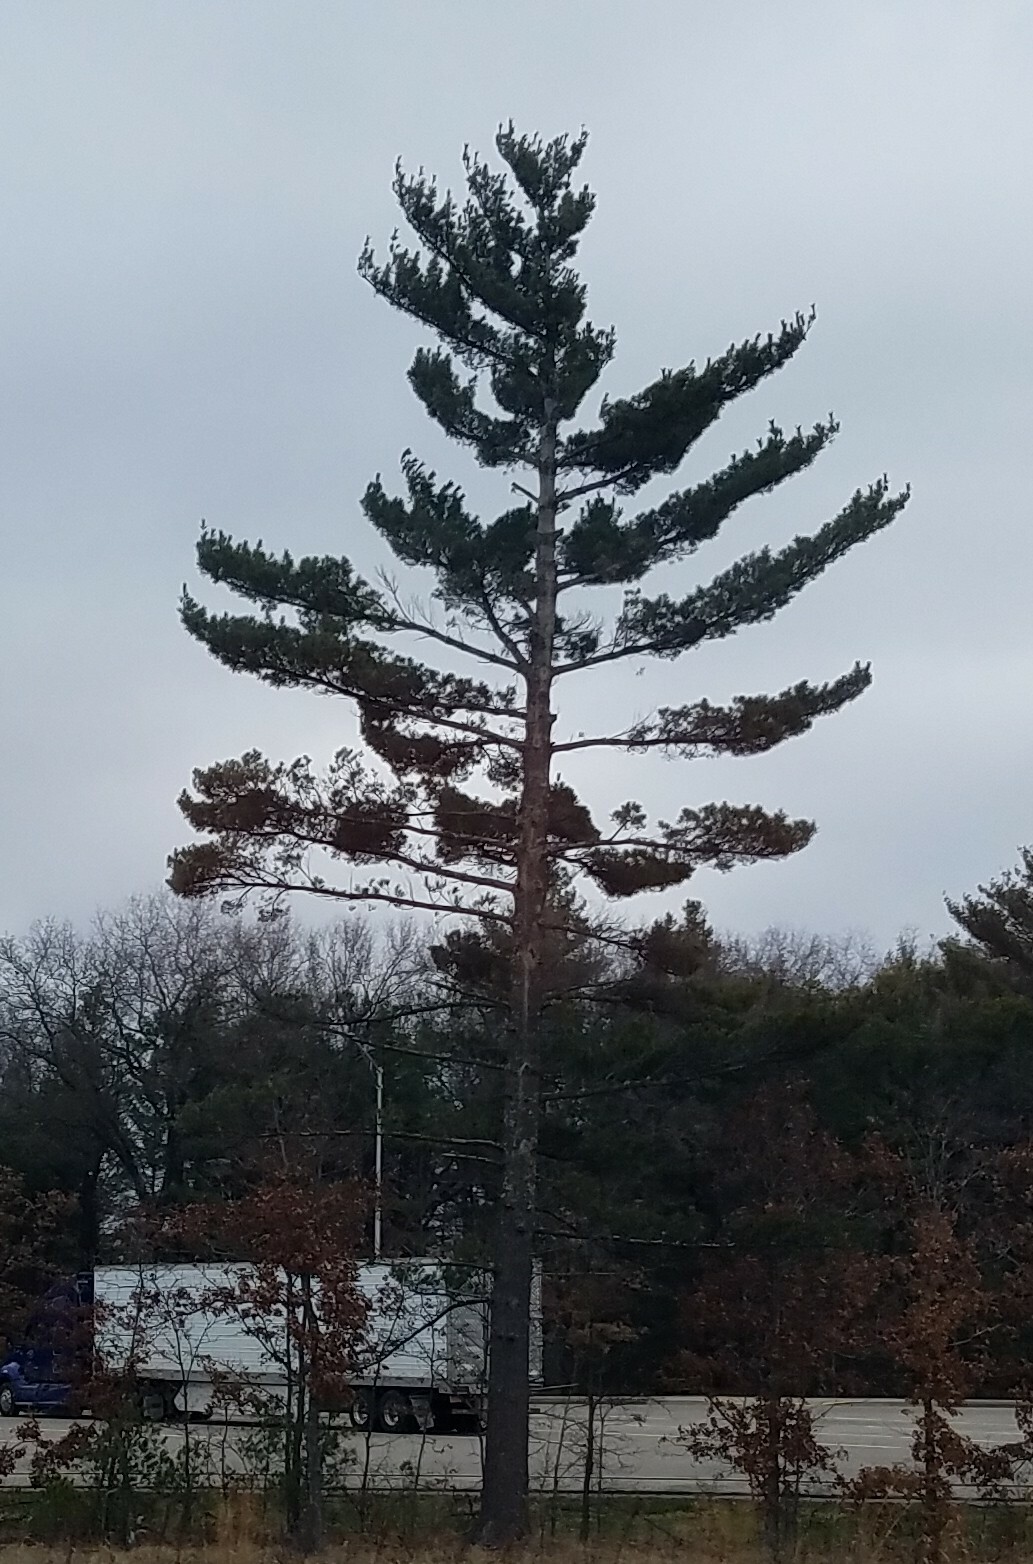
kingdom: Plantae
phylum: Tracheophyta
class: Pinopsida
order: Pinales
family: Pinaceae
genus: Pinus
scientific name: Pinus strobus
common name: Weymouth pine
